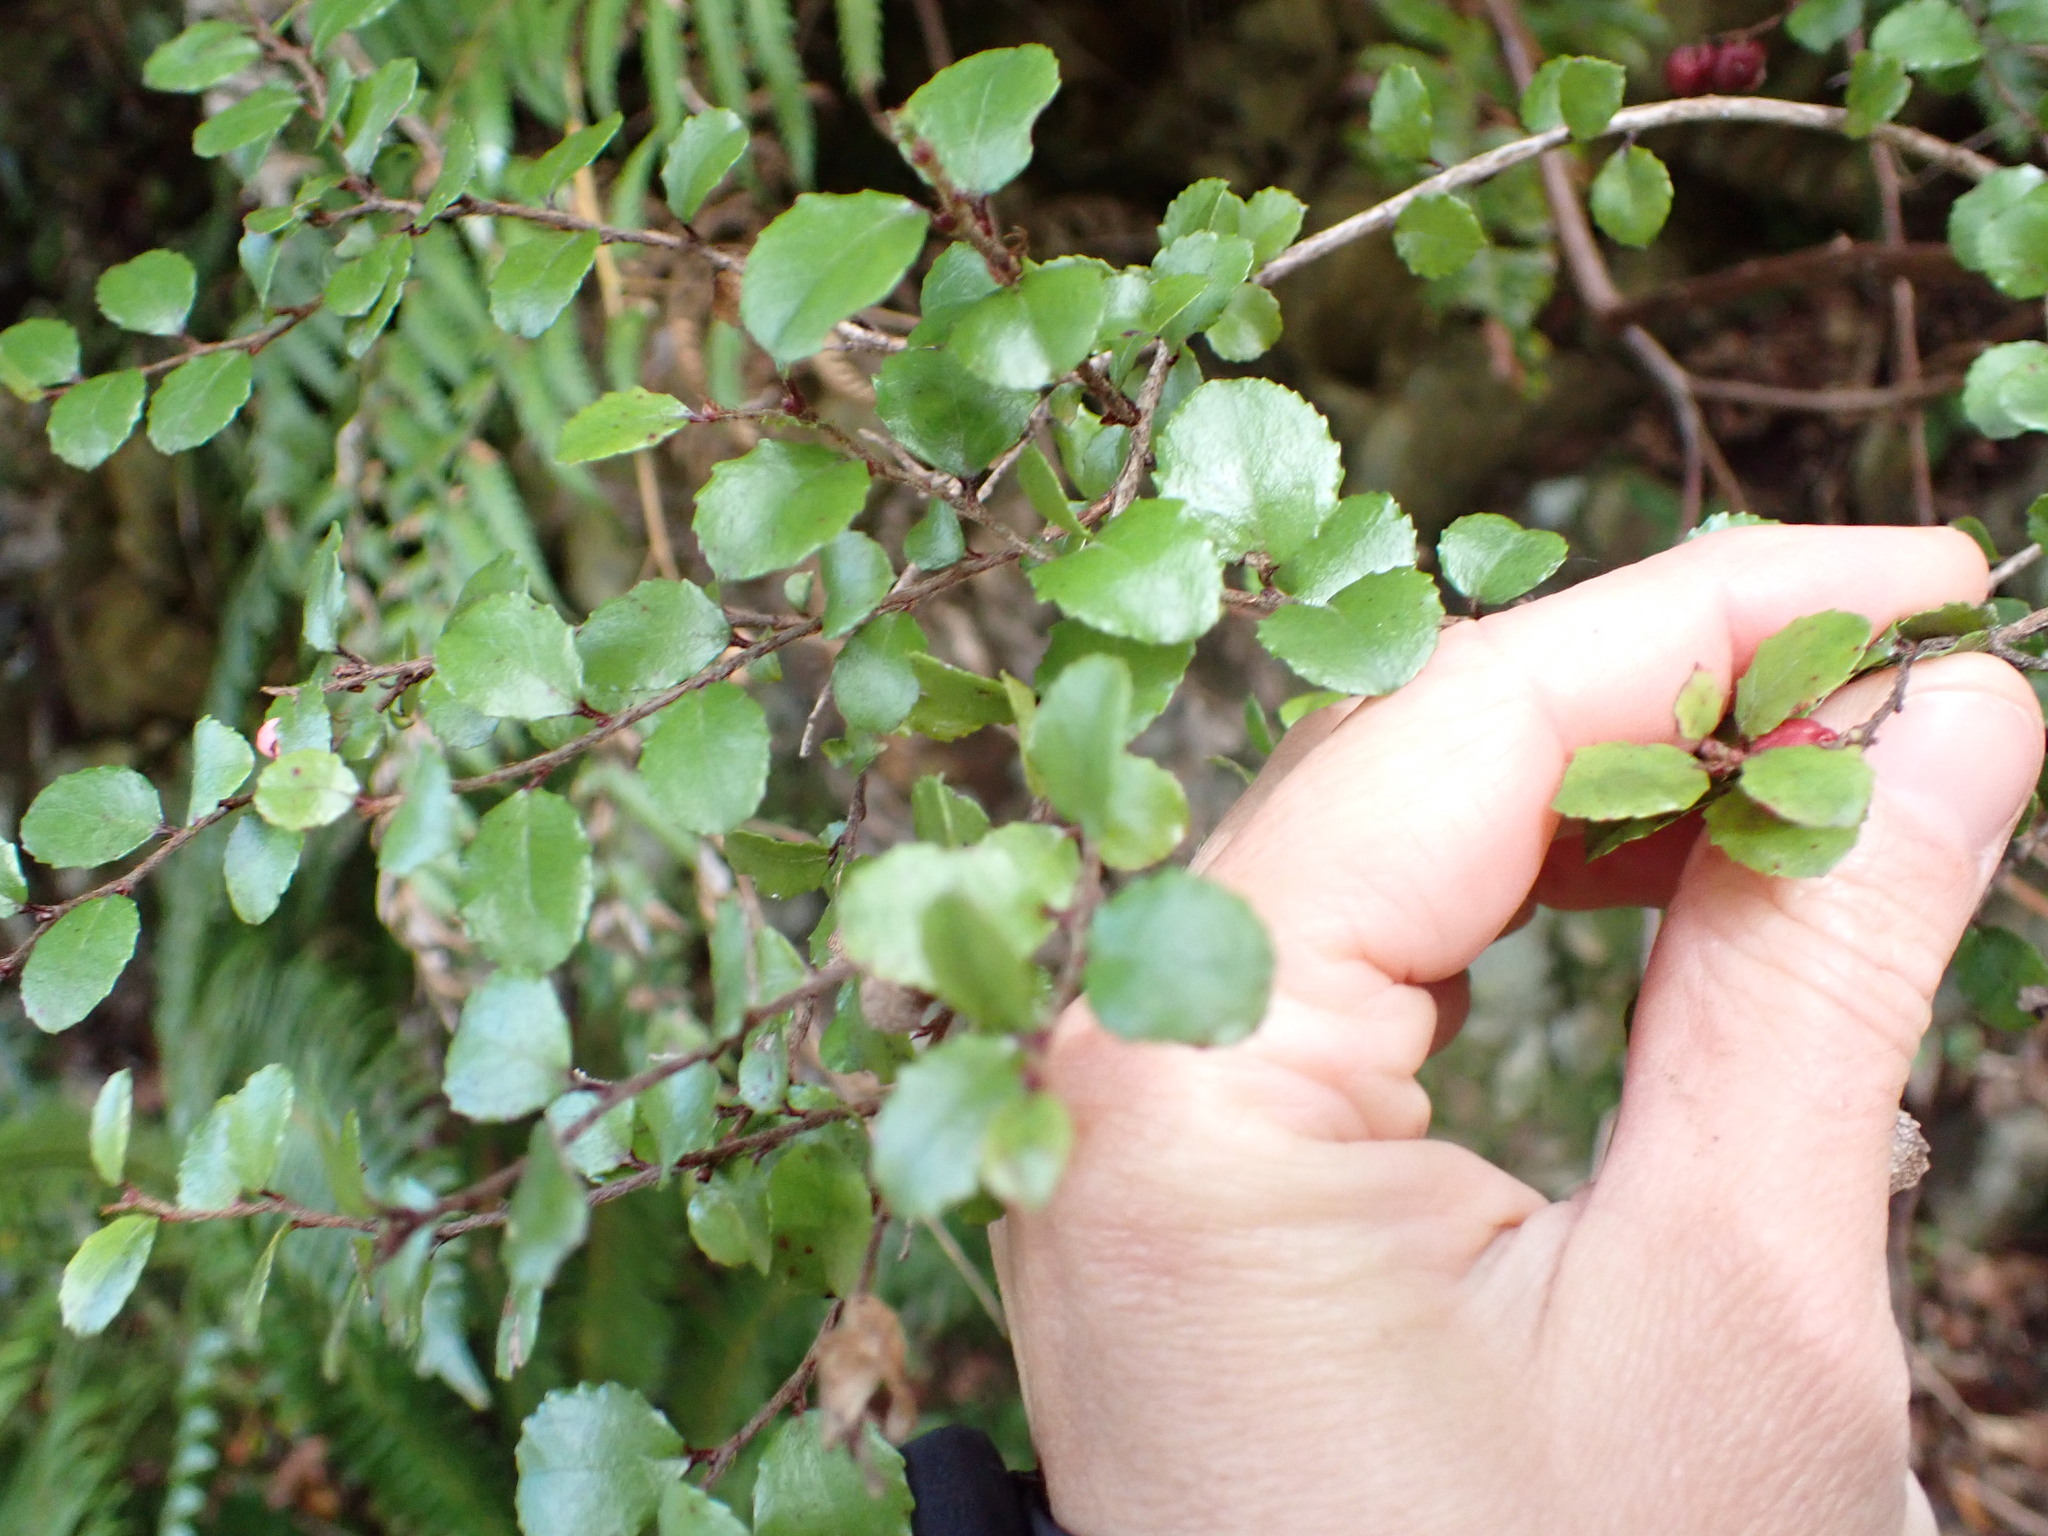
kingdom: Plantae
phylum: Tracheophyta
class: Magnoliopsida
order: Ericales
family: Ericaceae
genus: Gaultheria
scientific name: Gaultheria antipoda
